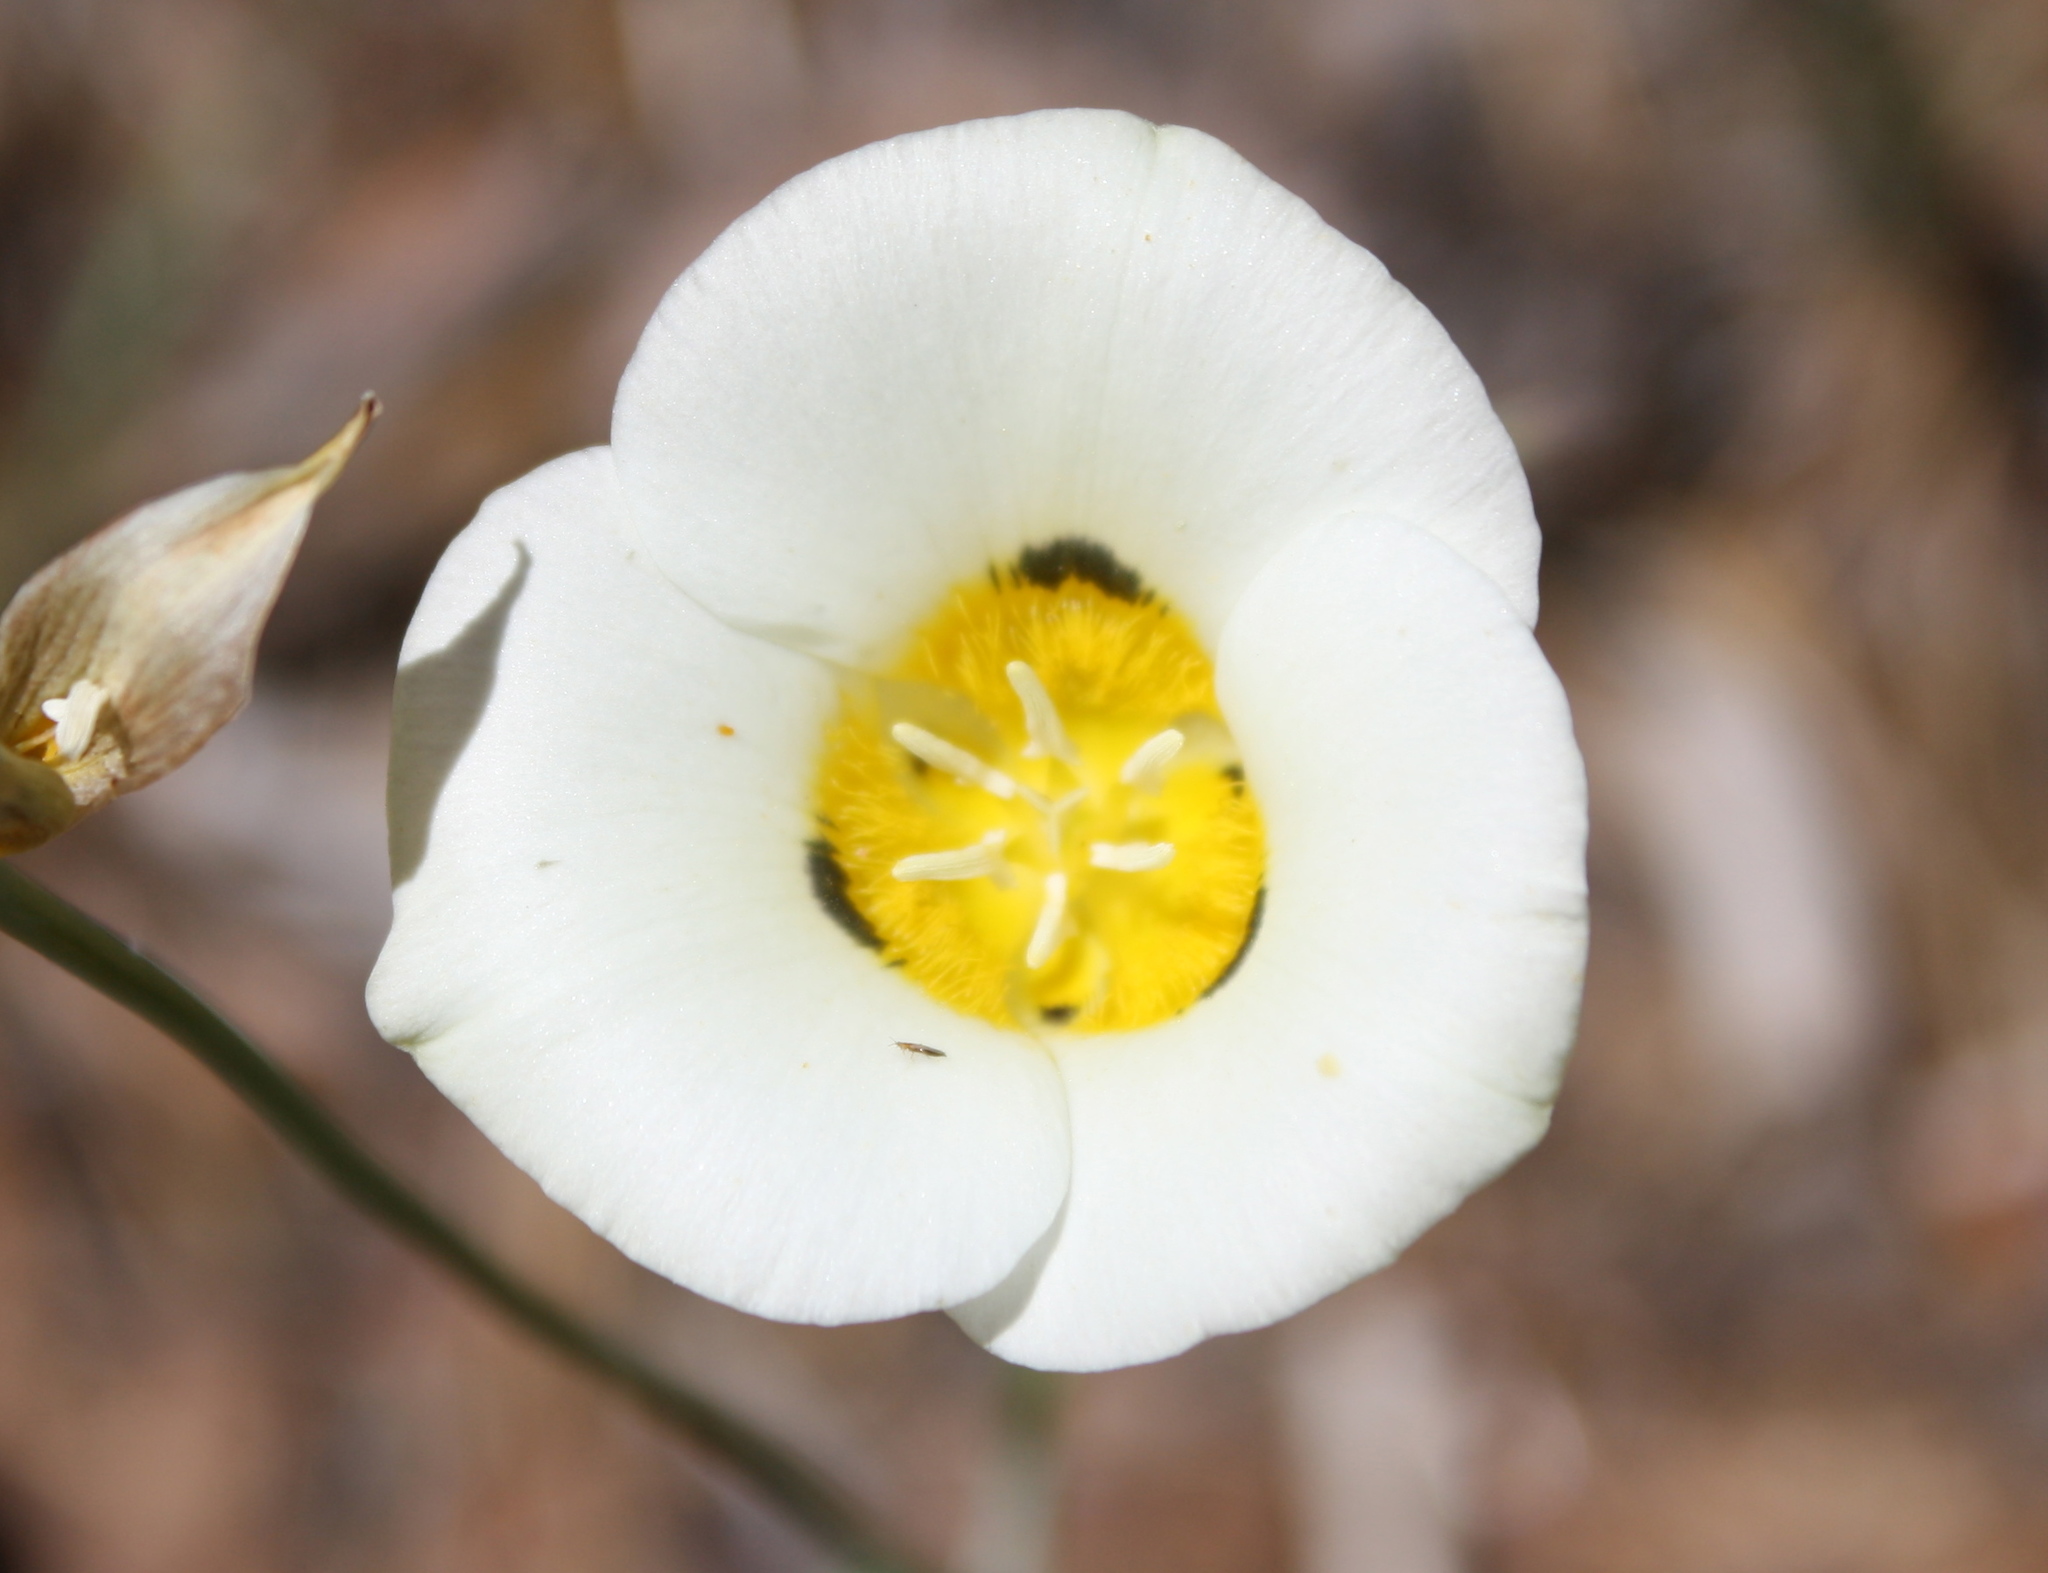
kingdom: Plantae
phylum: Tracheophyta
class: Liliopsida
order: Liliales
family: Liliaceae
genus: Calochortus
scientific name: Calochortus leichtlinii
